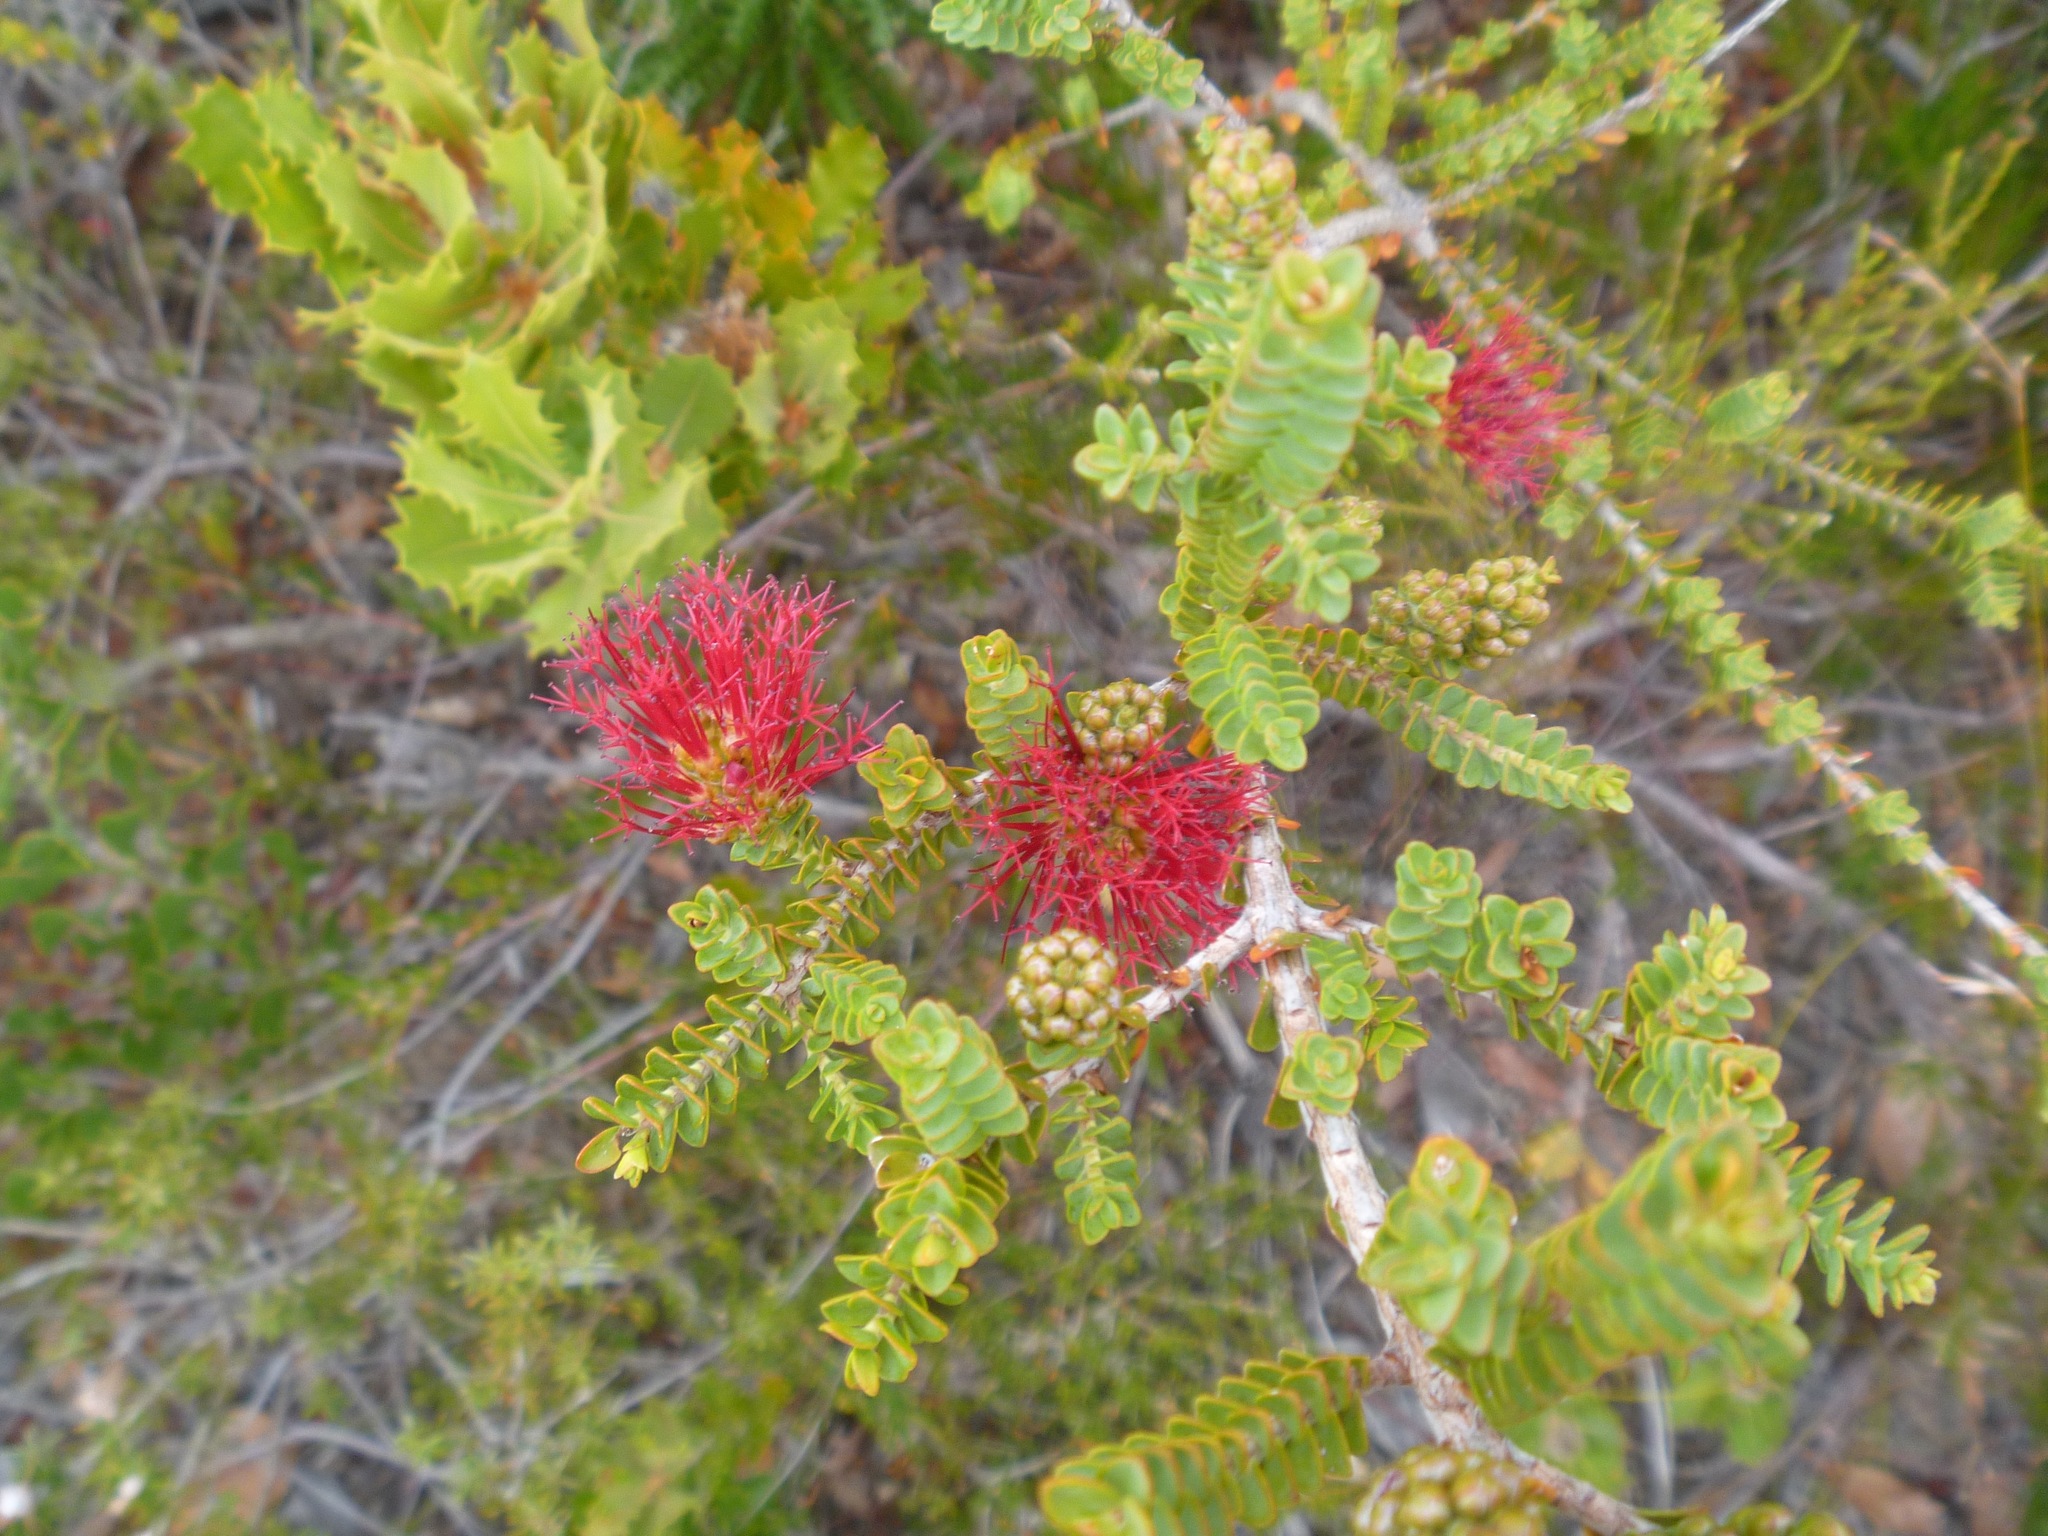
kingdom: Plantae
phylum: Tracheophyta
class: Magnoliopsida
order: Myrtales
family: Myrtaceae
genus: Melaleuca
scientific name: Melaleuca anisandra
